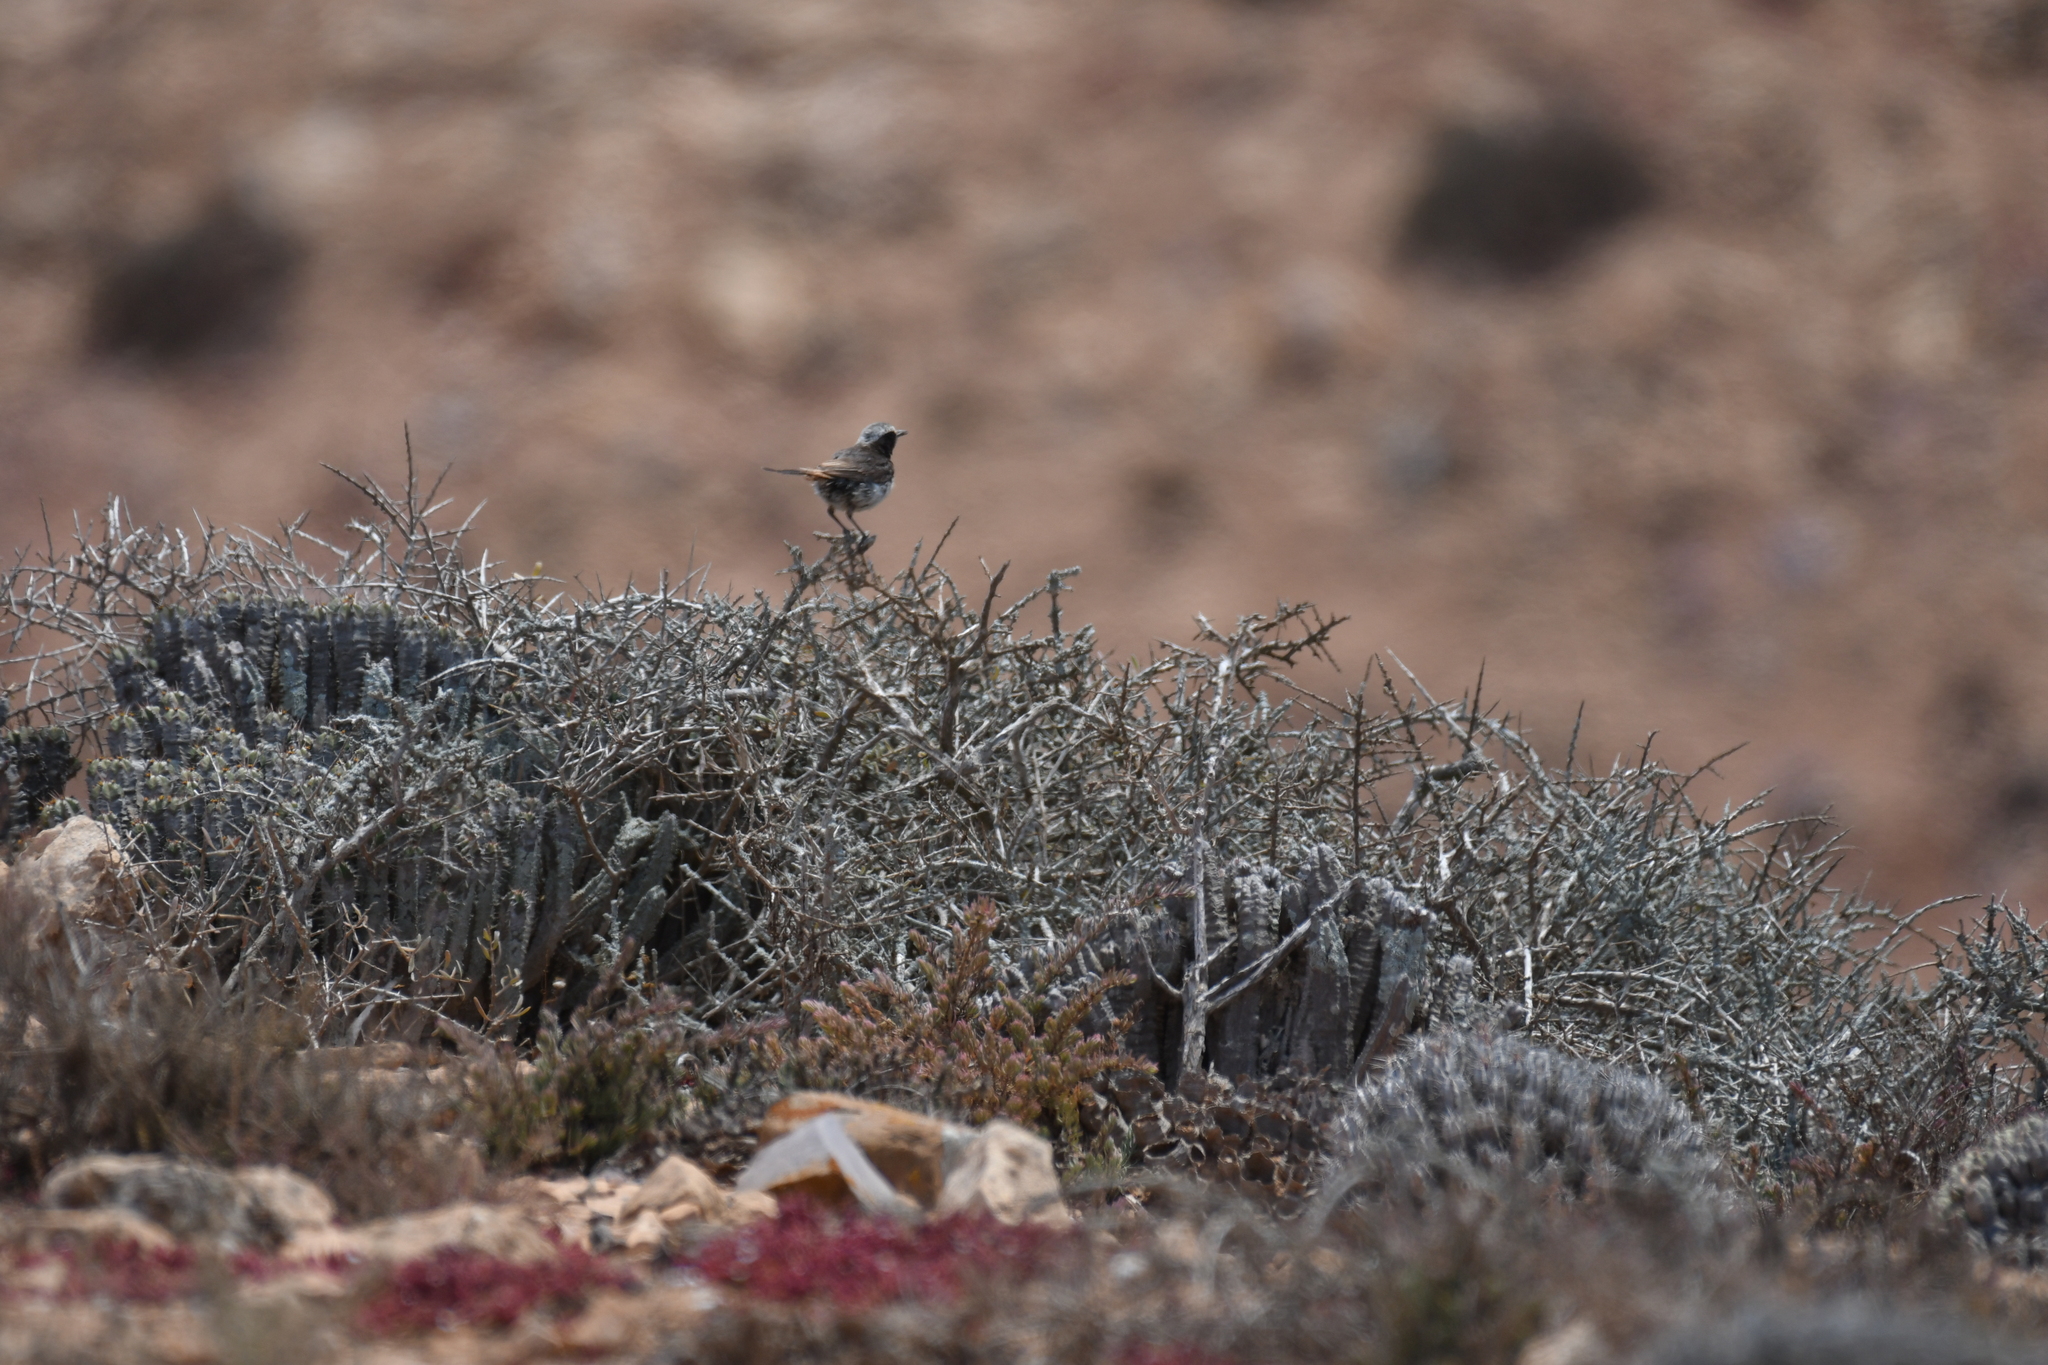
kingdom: Animalia
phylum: Chordata
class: Aves
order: Passeriformes
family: Muscicapidae
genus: Oenanthe
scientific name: Oenanthe moesta
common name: Red-rumped wheatear
